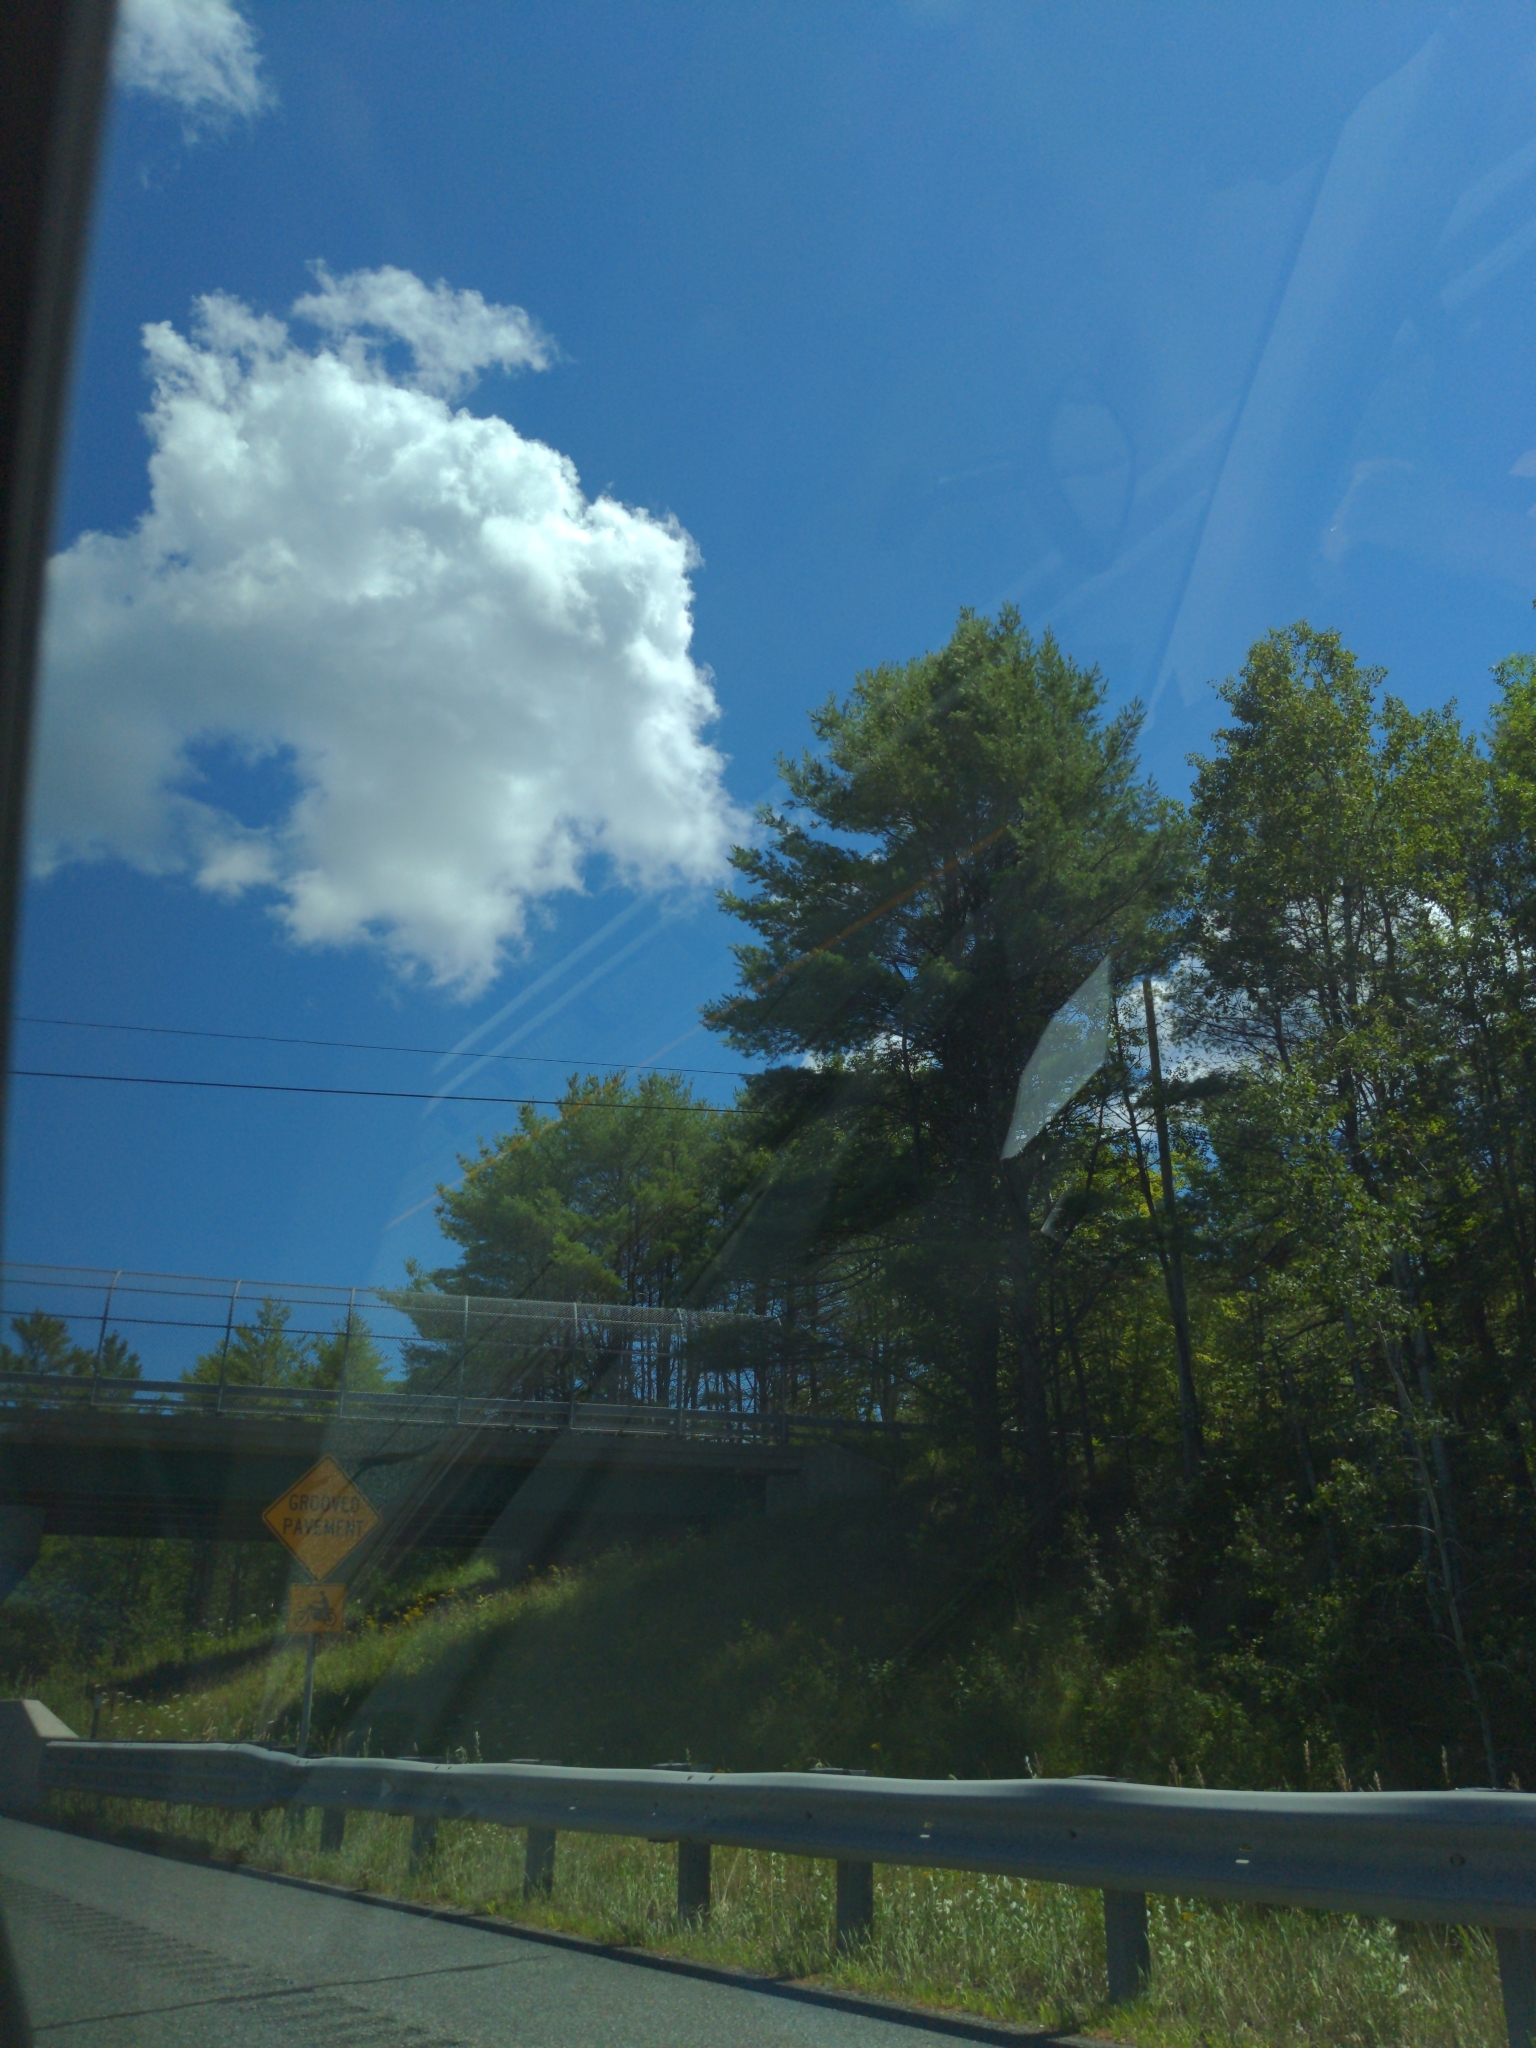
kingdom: Plantae
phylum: Tracheophyta
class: Pinopsida
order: Pinales
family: Pinaceae
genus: Pinus
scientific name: Pinus strobus
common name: Weymouth pine
